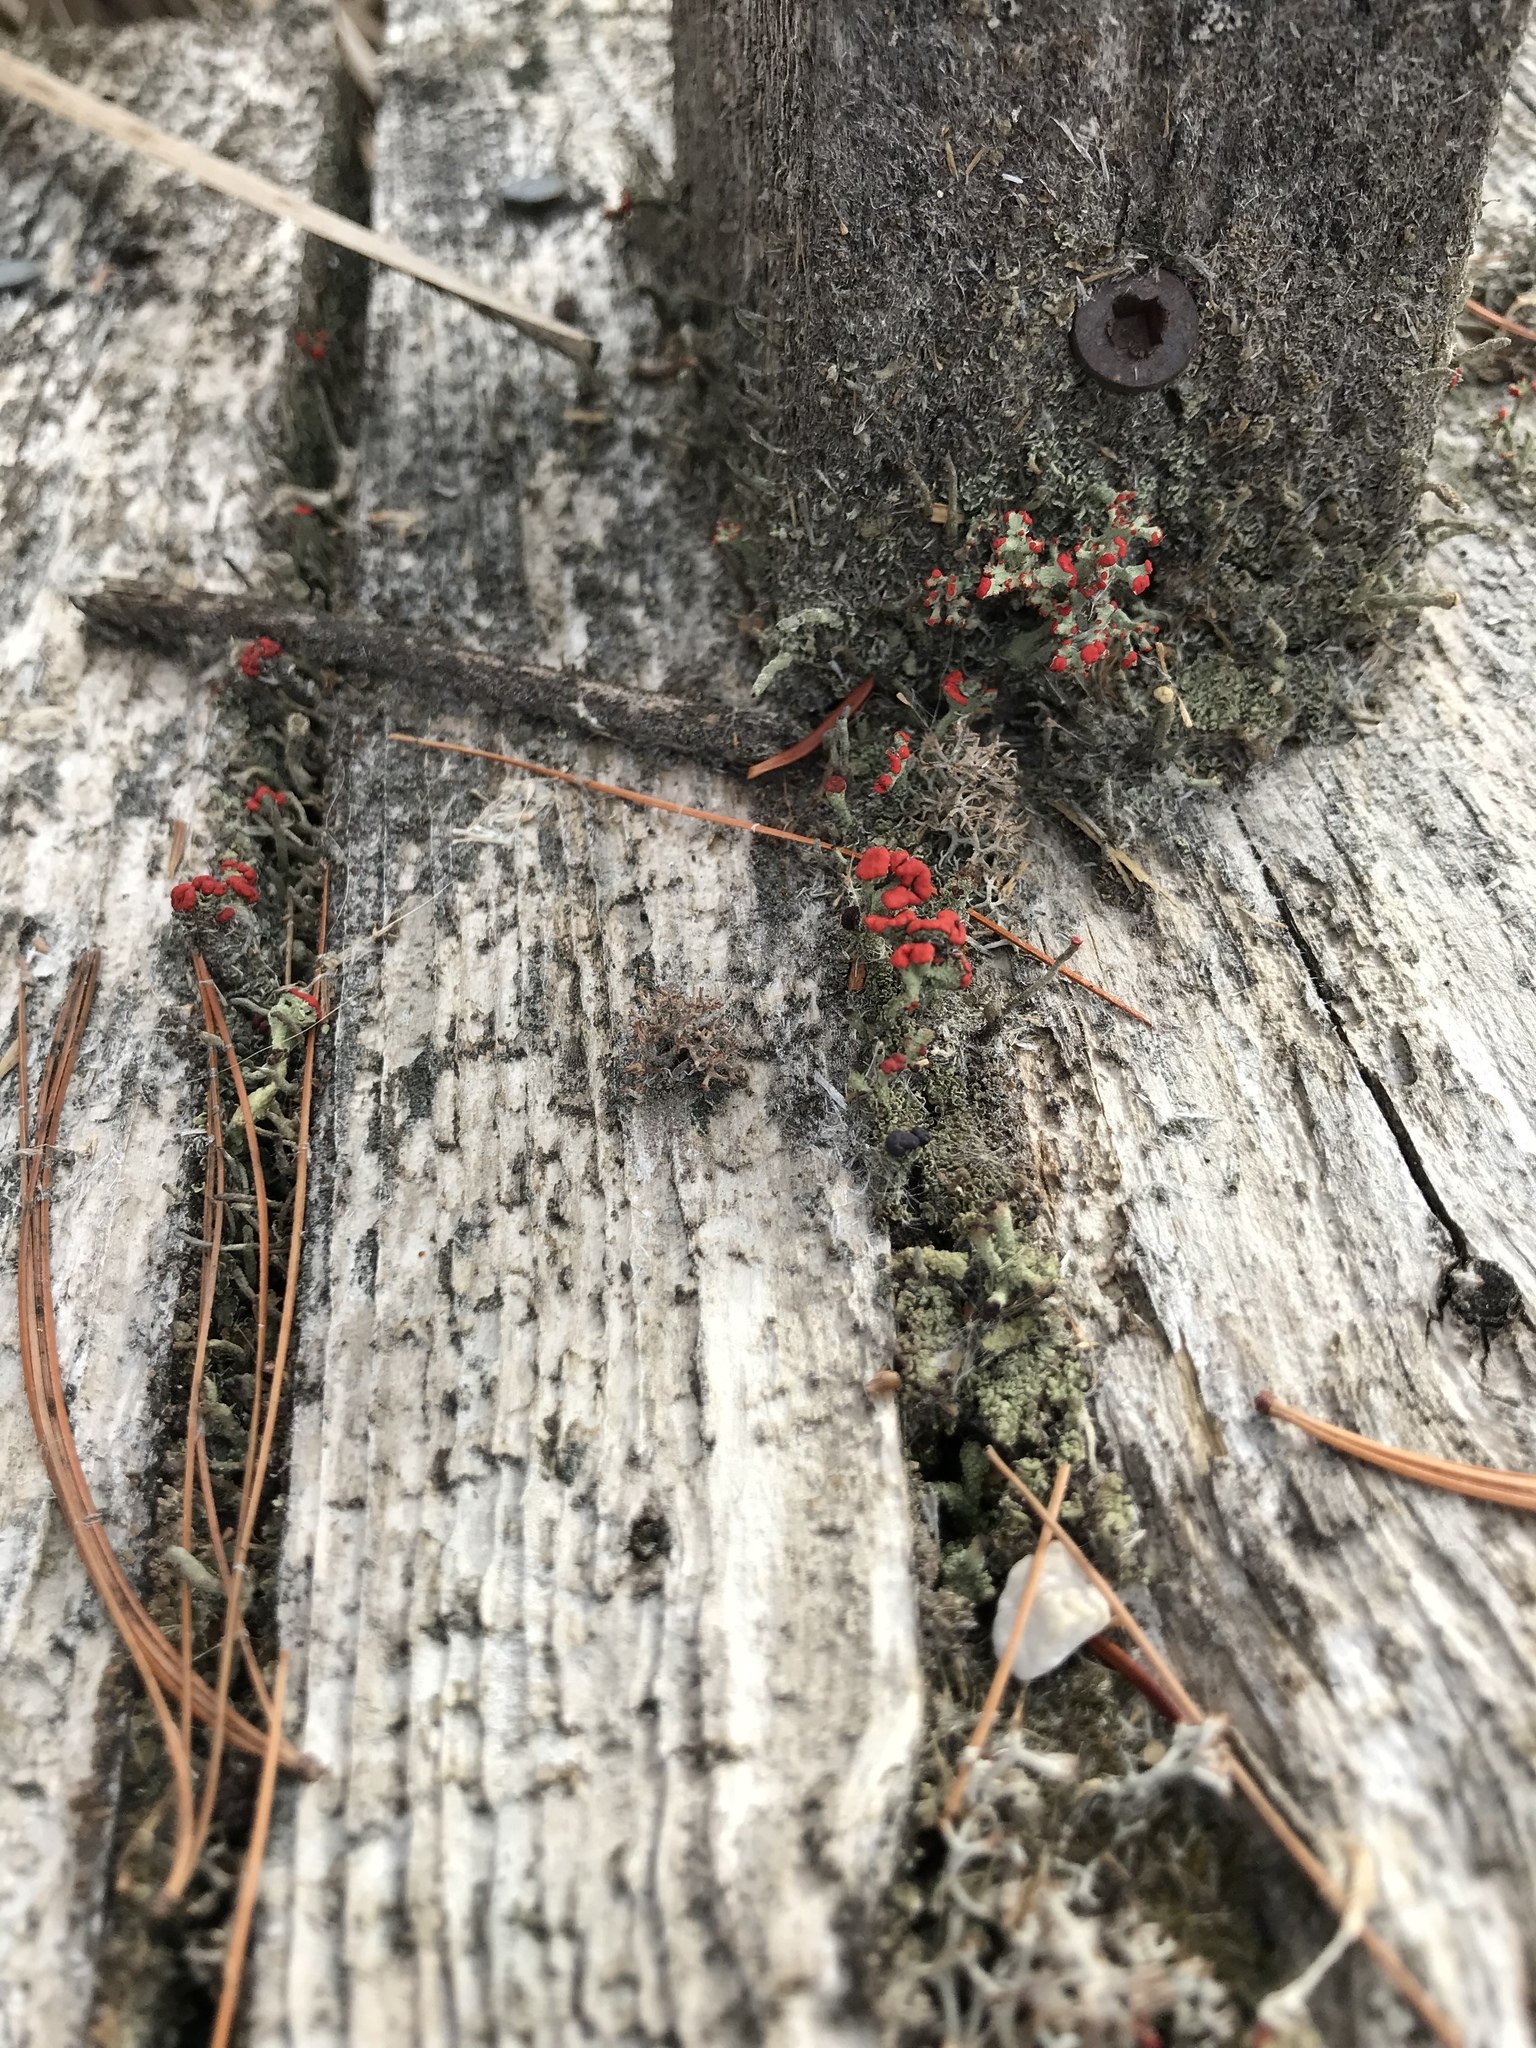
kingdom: Fungi
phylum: Ascomycota
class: Lecanoromycetes
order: Lecanorales
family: Cladoniaceae
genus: Cladonia
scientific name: Cladonia cristatella
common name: British soldier lichen
